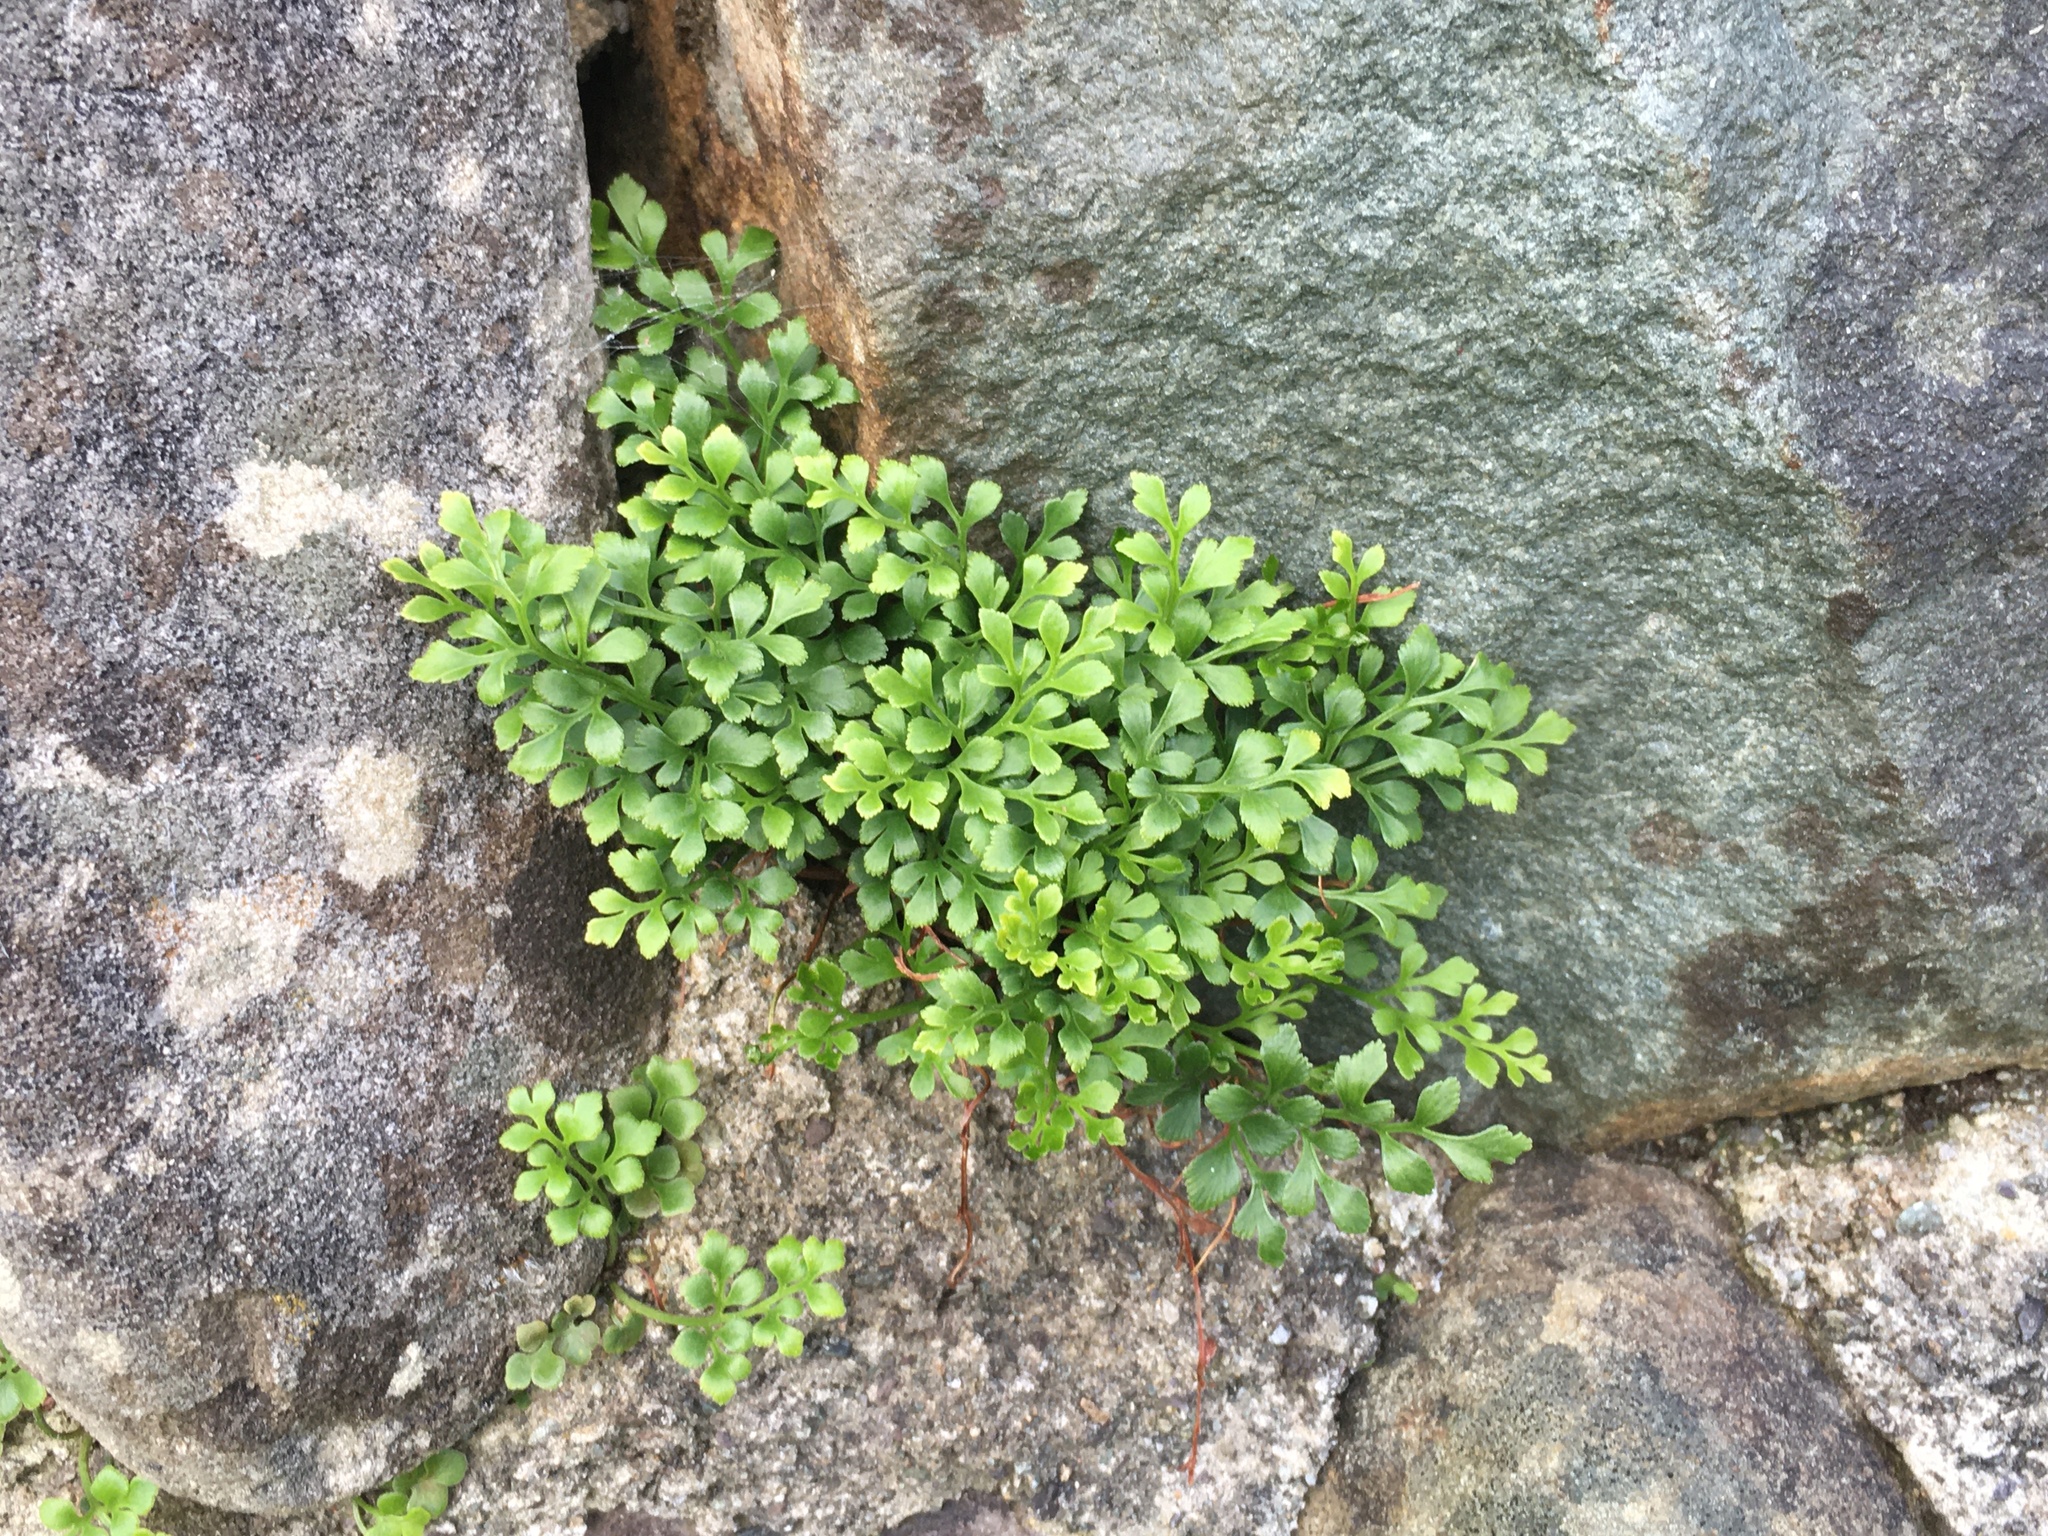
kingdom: Plantae
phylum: Tracheophyta
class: Polypodiopsida
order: Polypodiales
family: Aspleniaceae
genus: Asplenium
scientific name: Asplenium ruta-muraria
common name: Wall-rue
